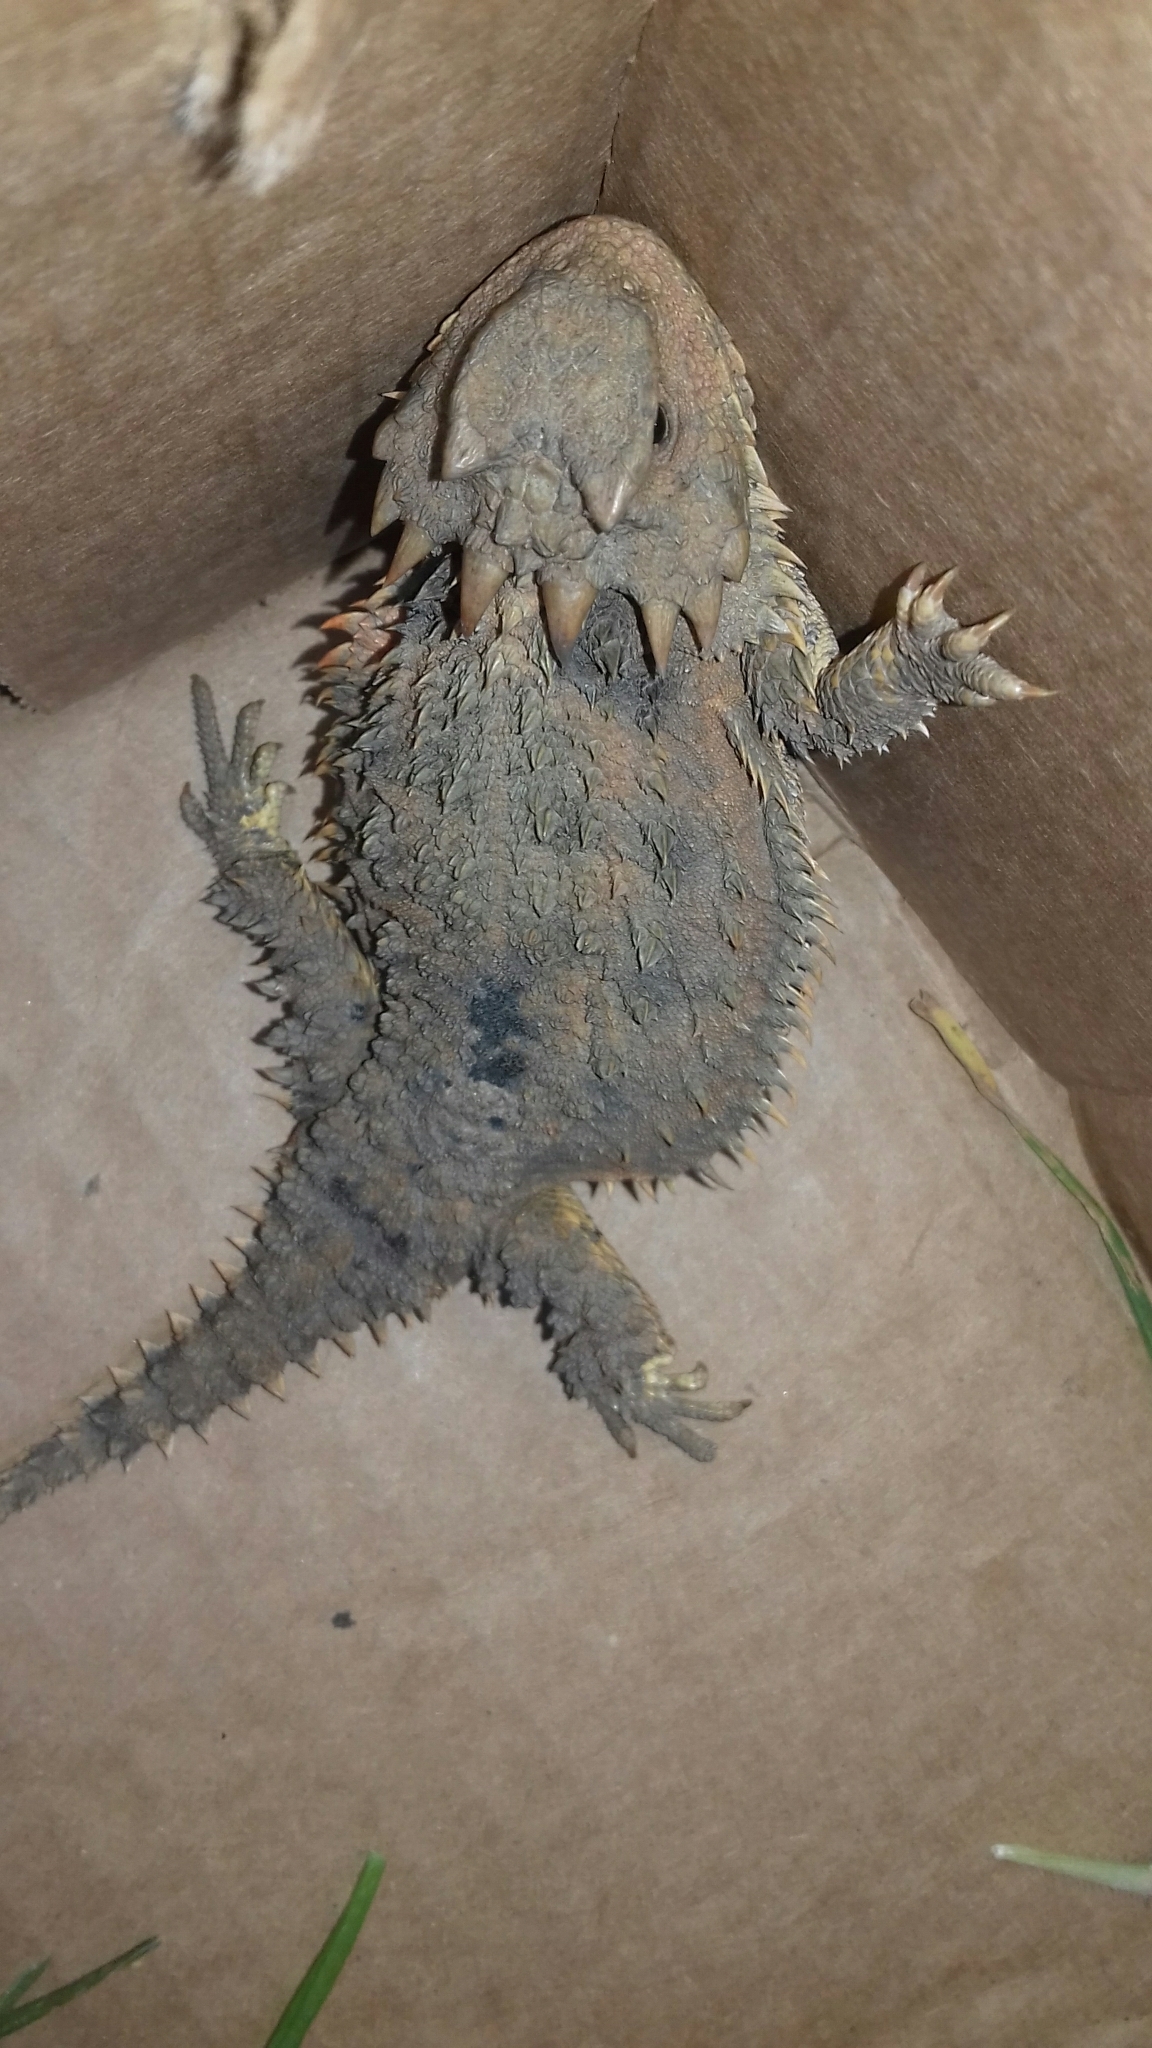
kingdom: Animalia
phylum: Chordata
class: Squamata
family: Phrynosomatidae
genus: Phrynosoma
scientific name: Phrynosoma orbiculare
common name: Mountain horned lizard
